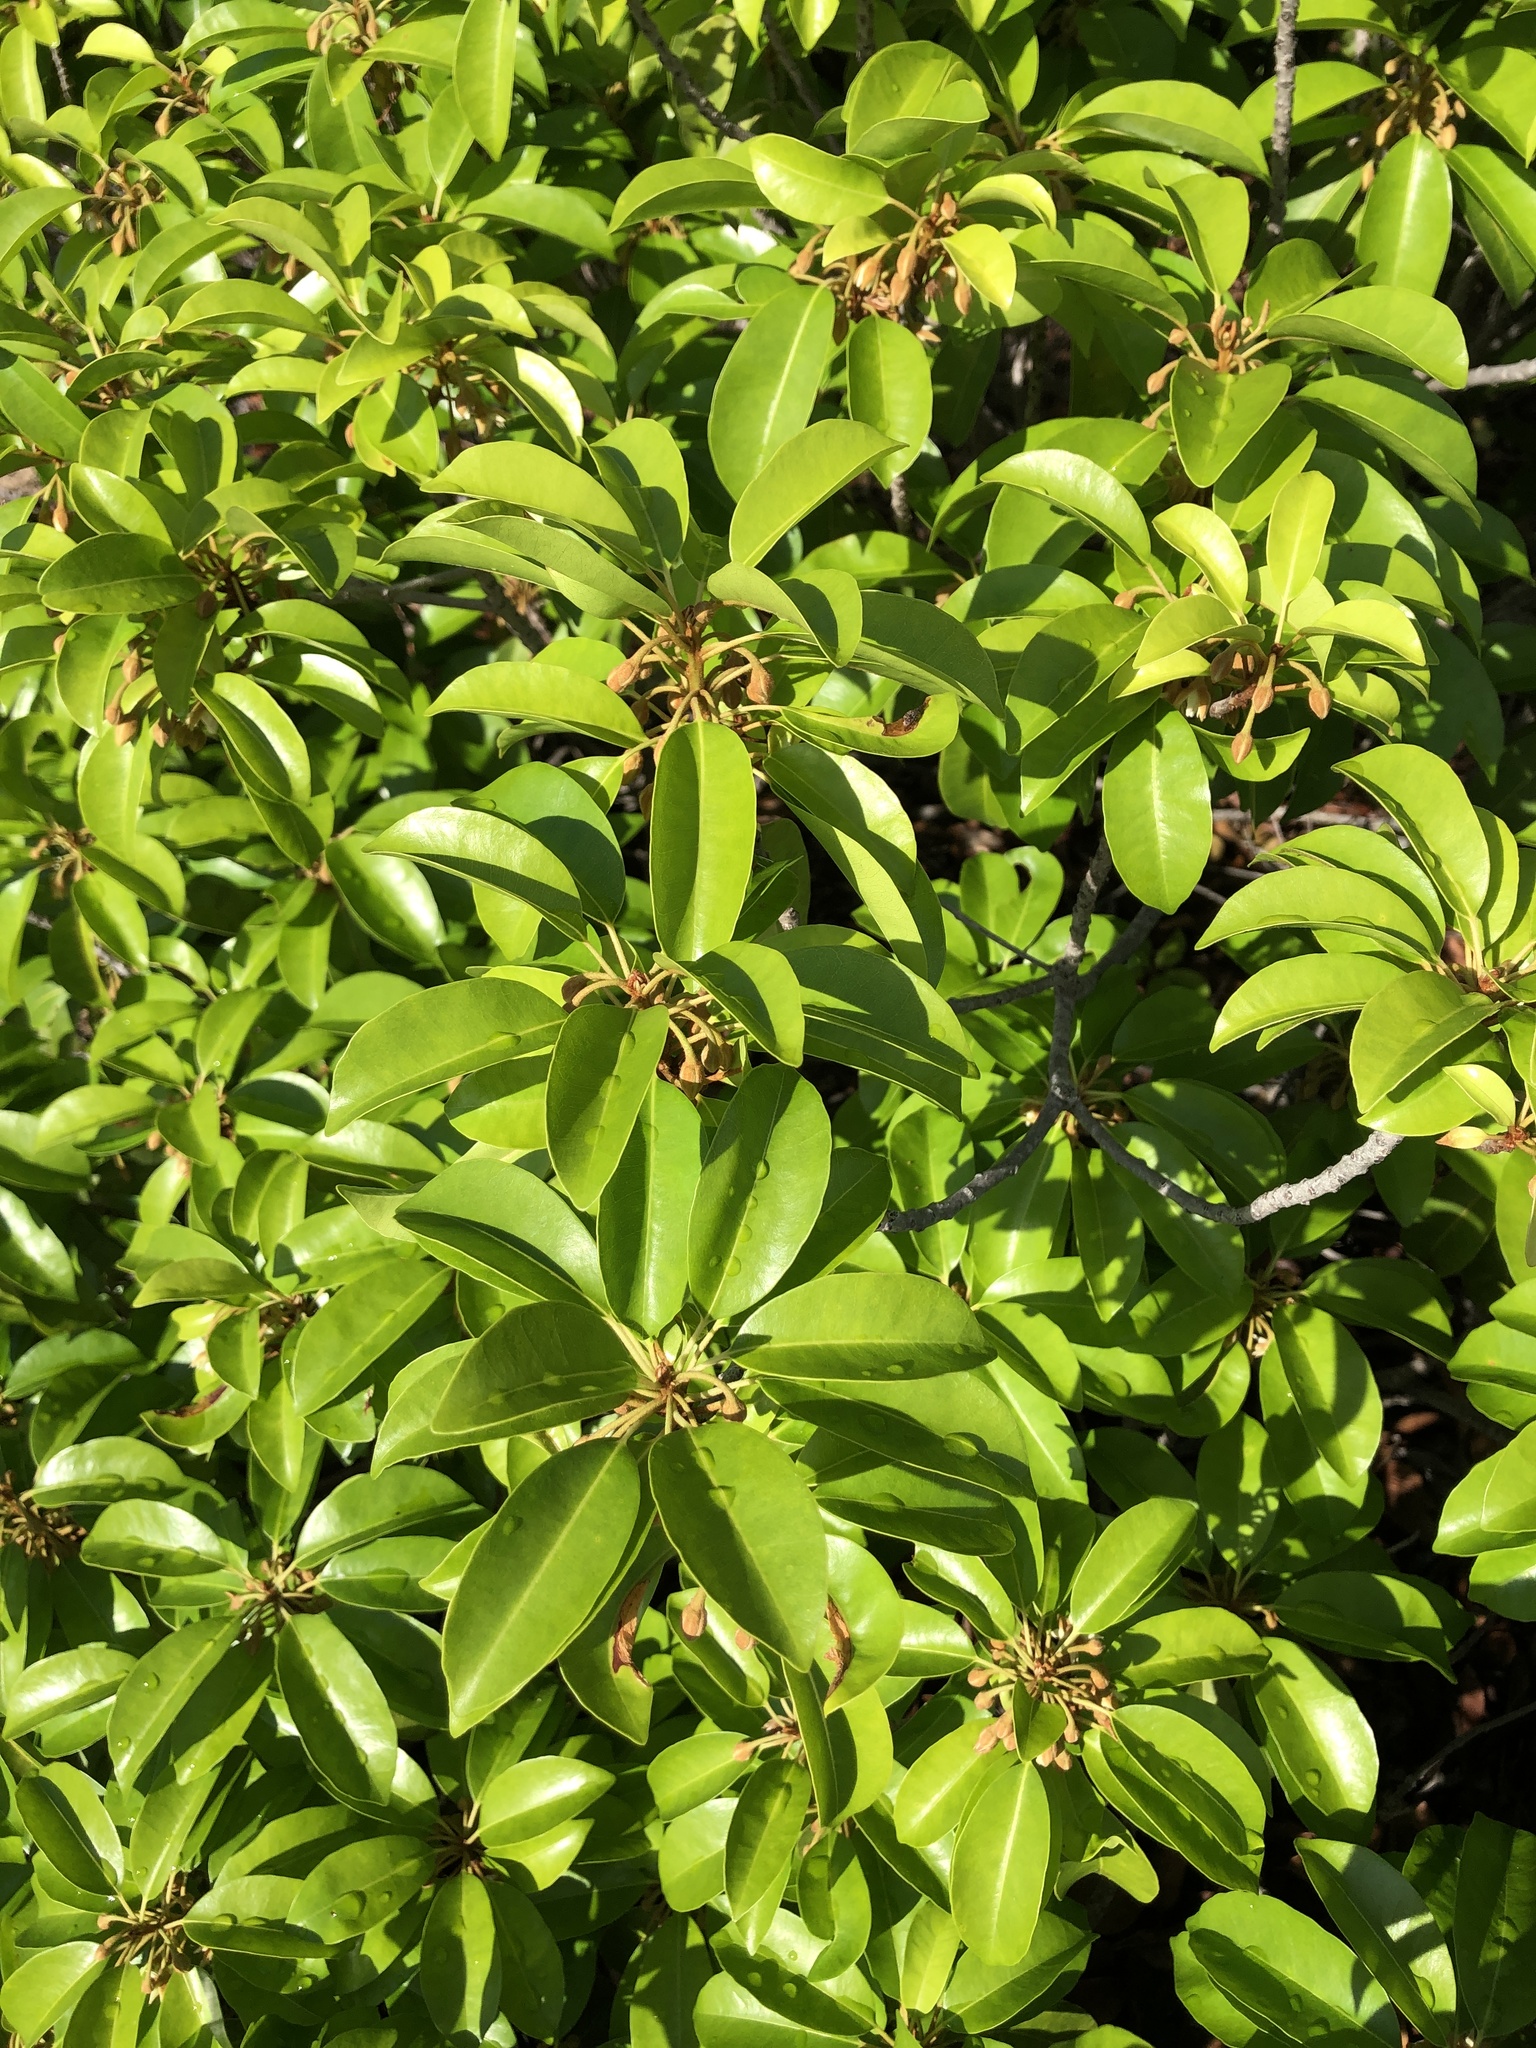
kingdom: Plantae
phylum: Tracheophyta
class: Magnoliopsida
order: Ericales
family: Sapotaceae
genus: Mimusops
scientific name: Mimusops elengi
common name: Spanish cherry
